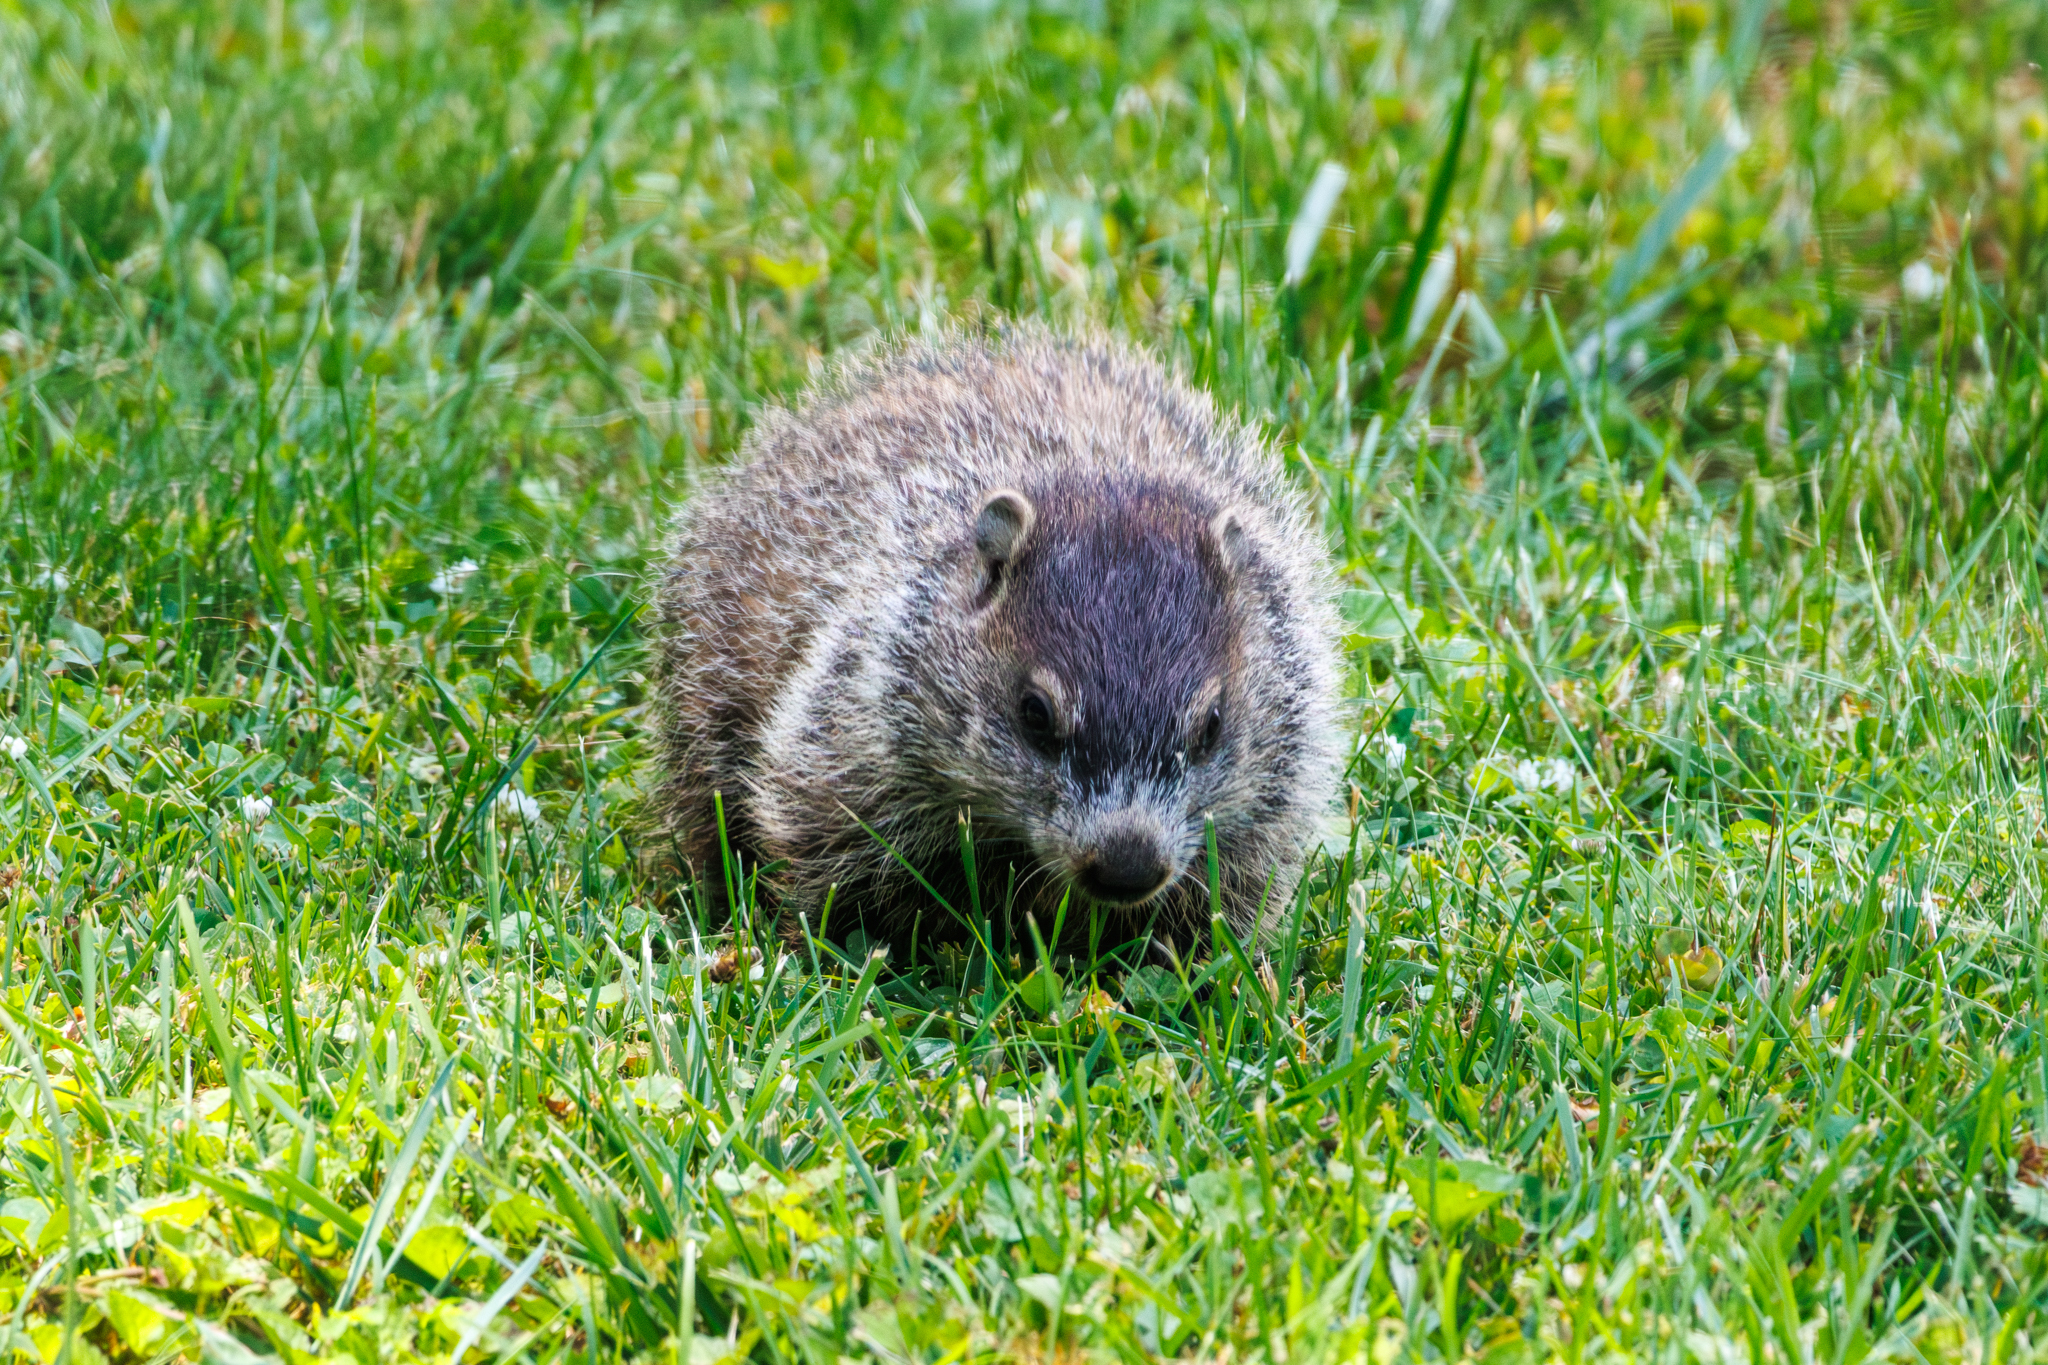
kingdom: Animalia
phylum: Chordata
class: Mammalia
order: Rodentia
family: Sciuridae
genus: Marmota
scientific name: Marmota monax
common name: Groundhog
